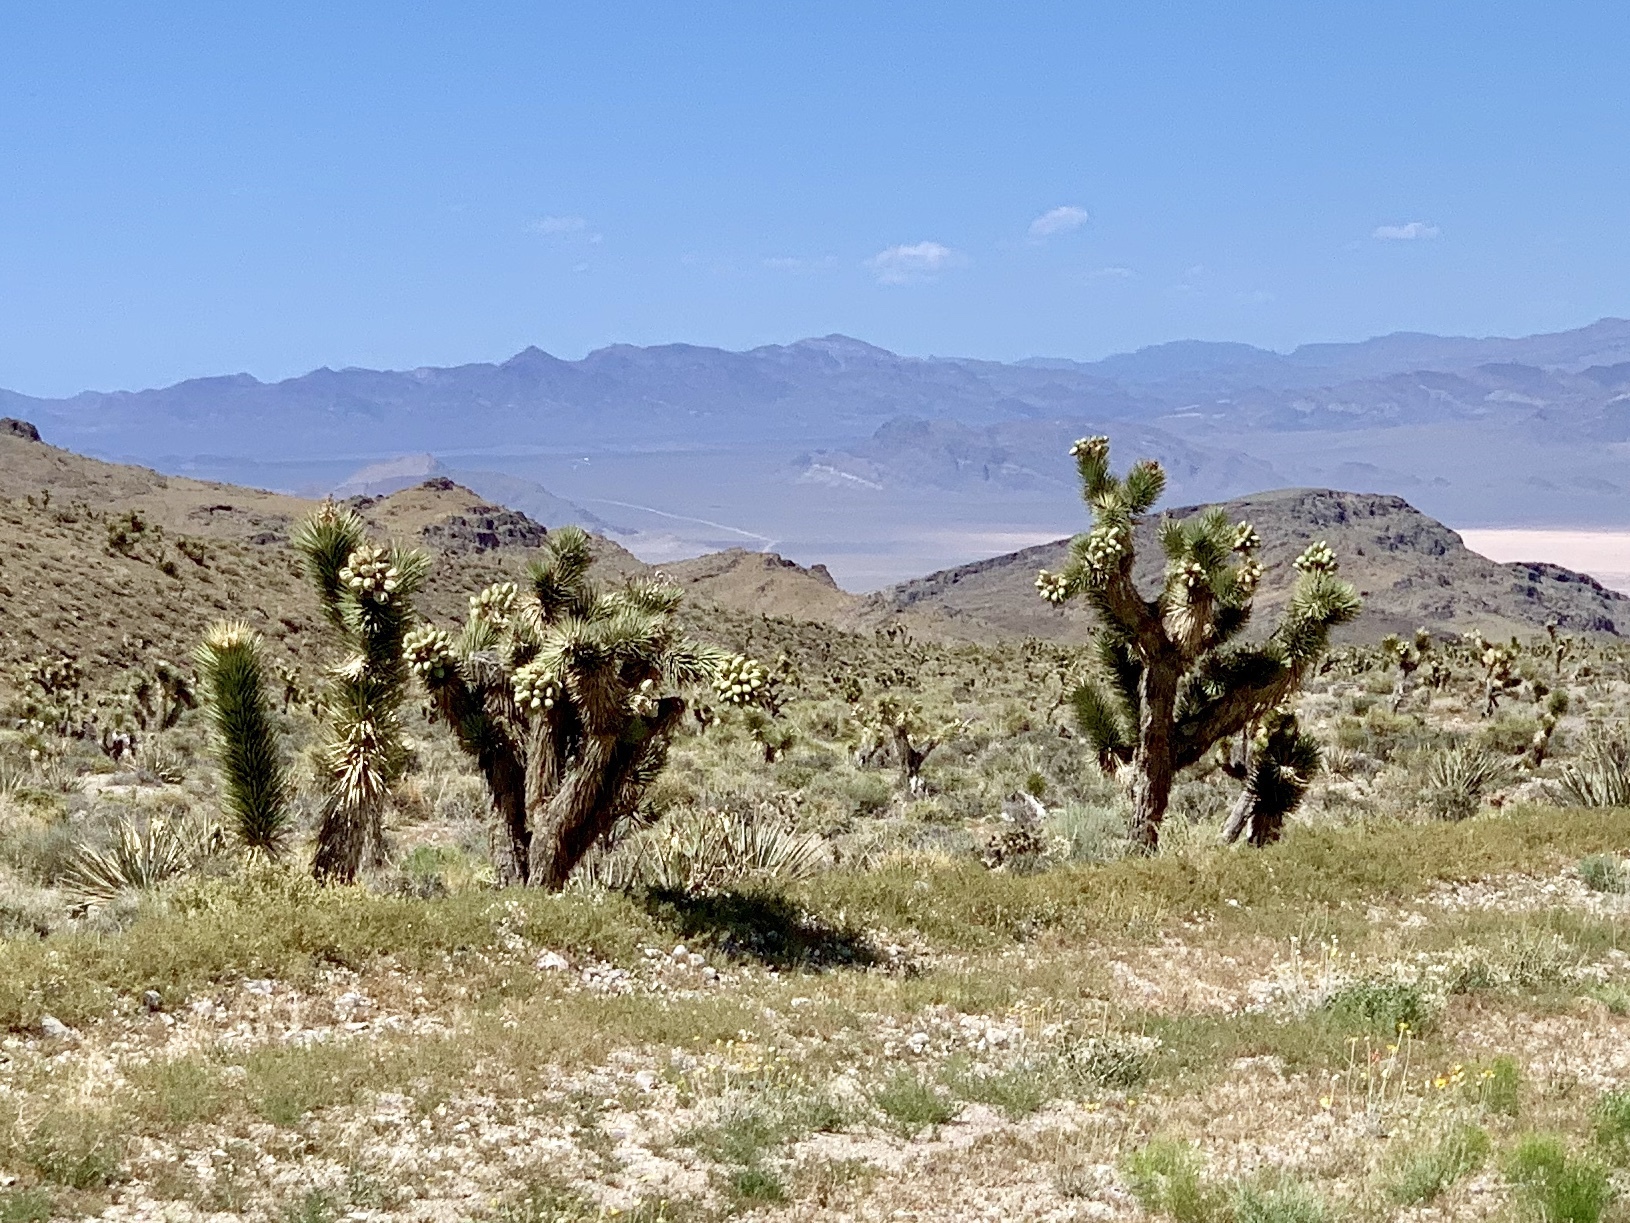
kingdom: Plantae
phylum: Tracheophyta
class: Liliopsida
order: Asparagales
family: Asparagaceae
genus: Yucca
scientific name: Yucca brevifolia
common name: Joshua tree
